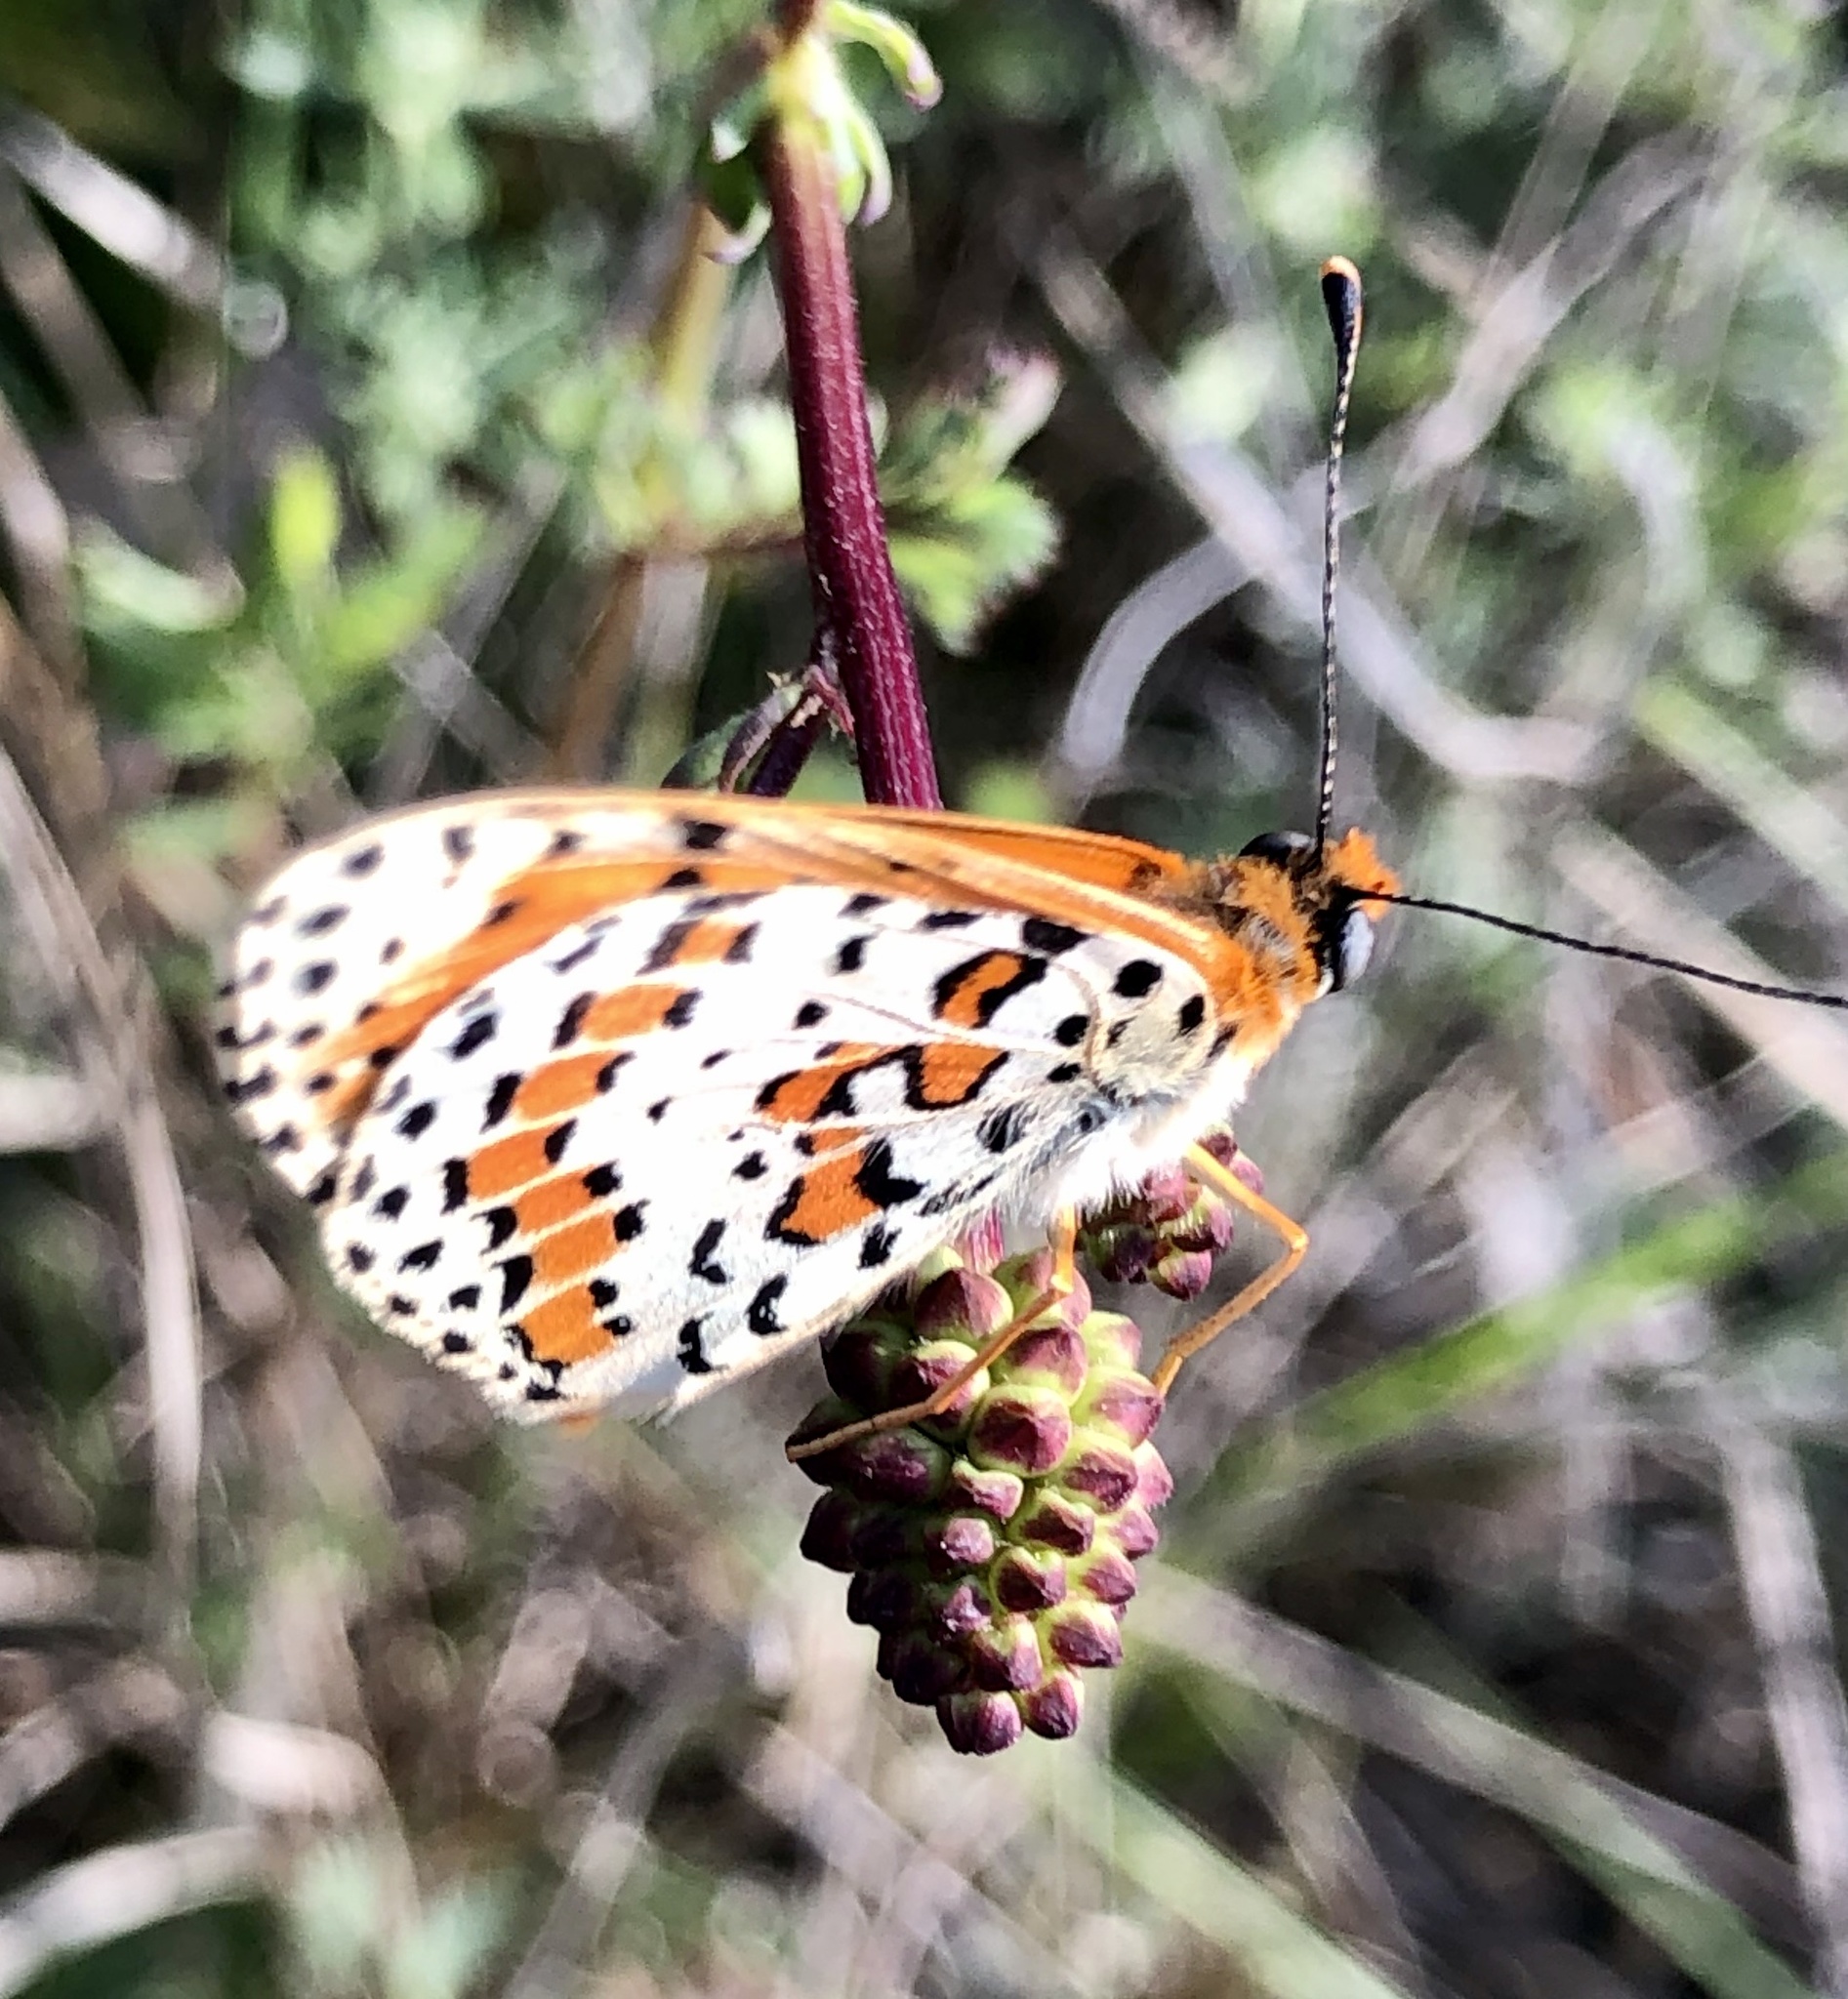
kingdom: Animalia
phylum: Arthropoda
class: Insecta
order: Lepidoptera
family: Nymphalidae
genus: Melitaea
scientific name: Melitaea didyma
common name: Spotted fritillary
